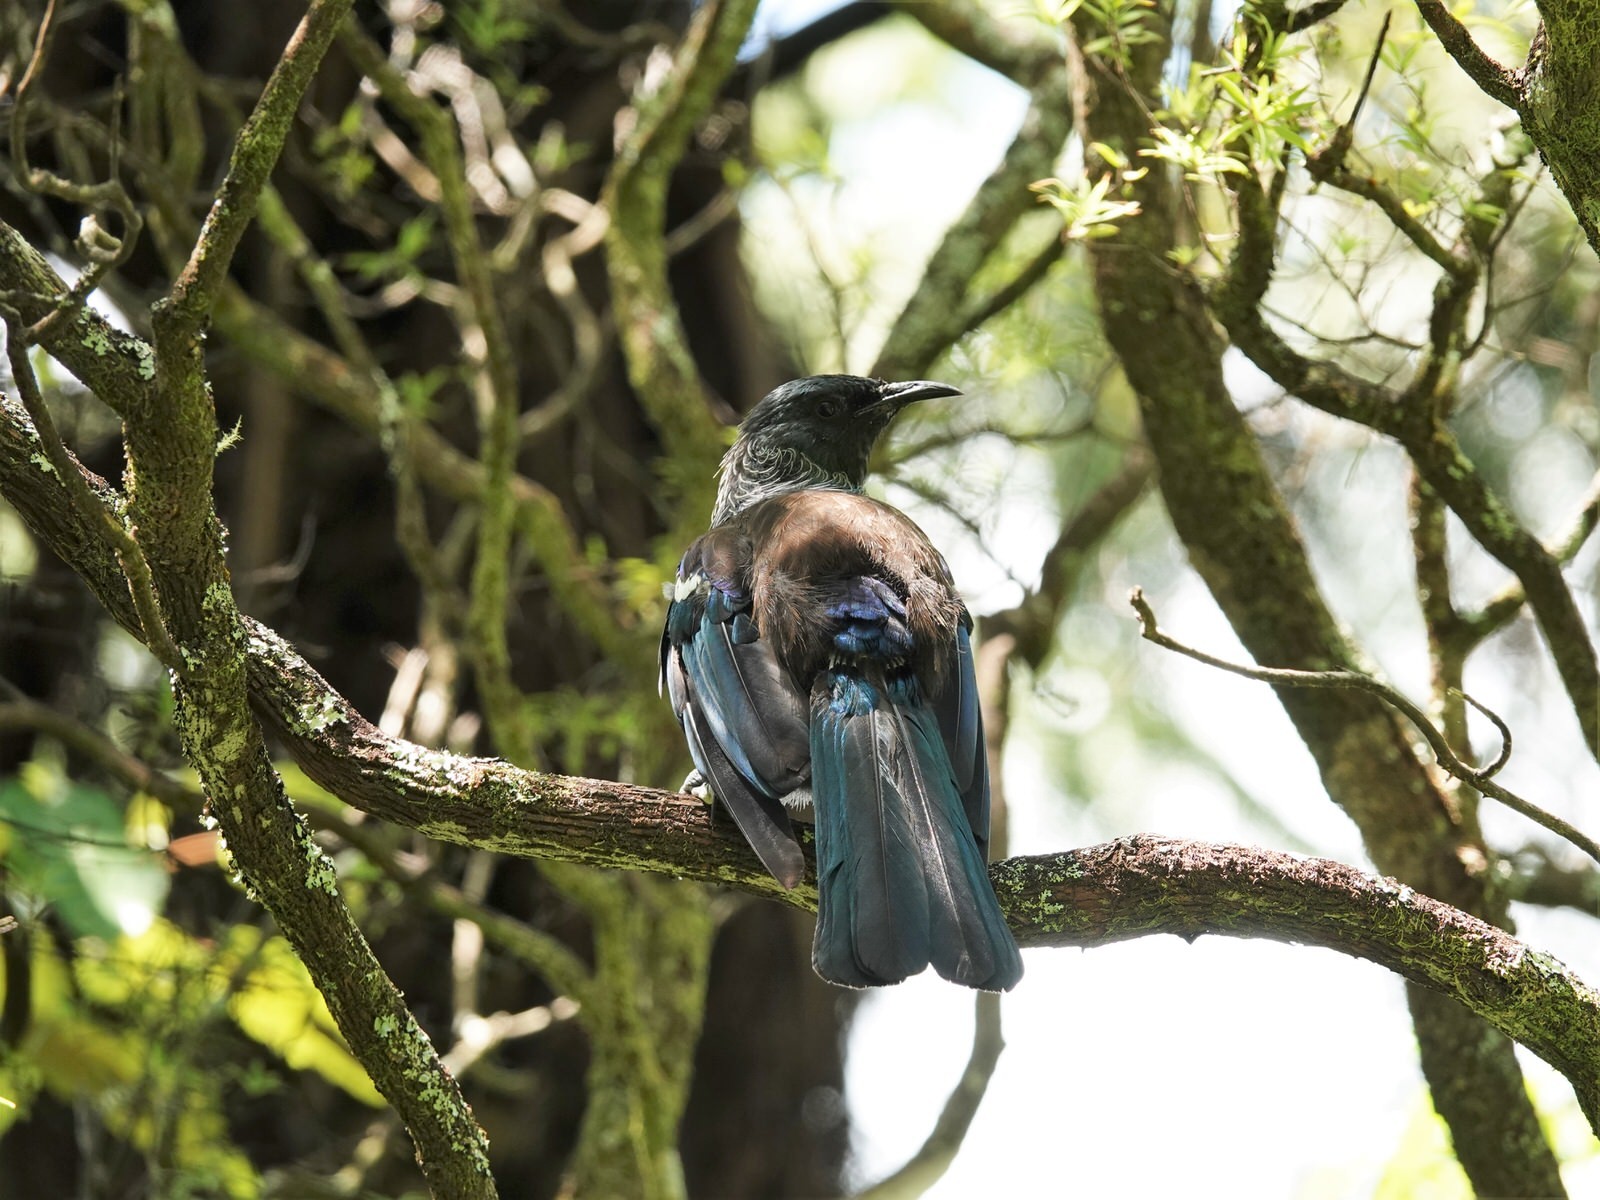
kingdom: Animalia
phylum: Chordata
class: Aves
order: Passeriformes
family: Meliphagidae
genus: Prosthemadera
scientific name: Prosthemadera novaeseelandiae
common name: Tui
